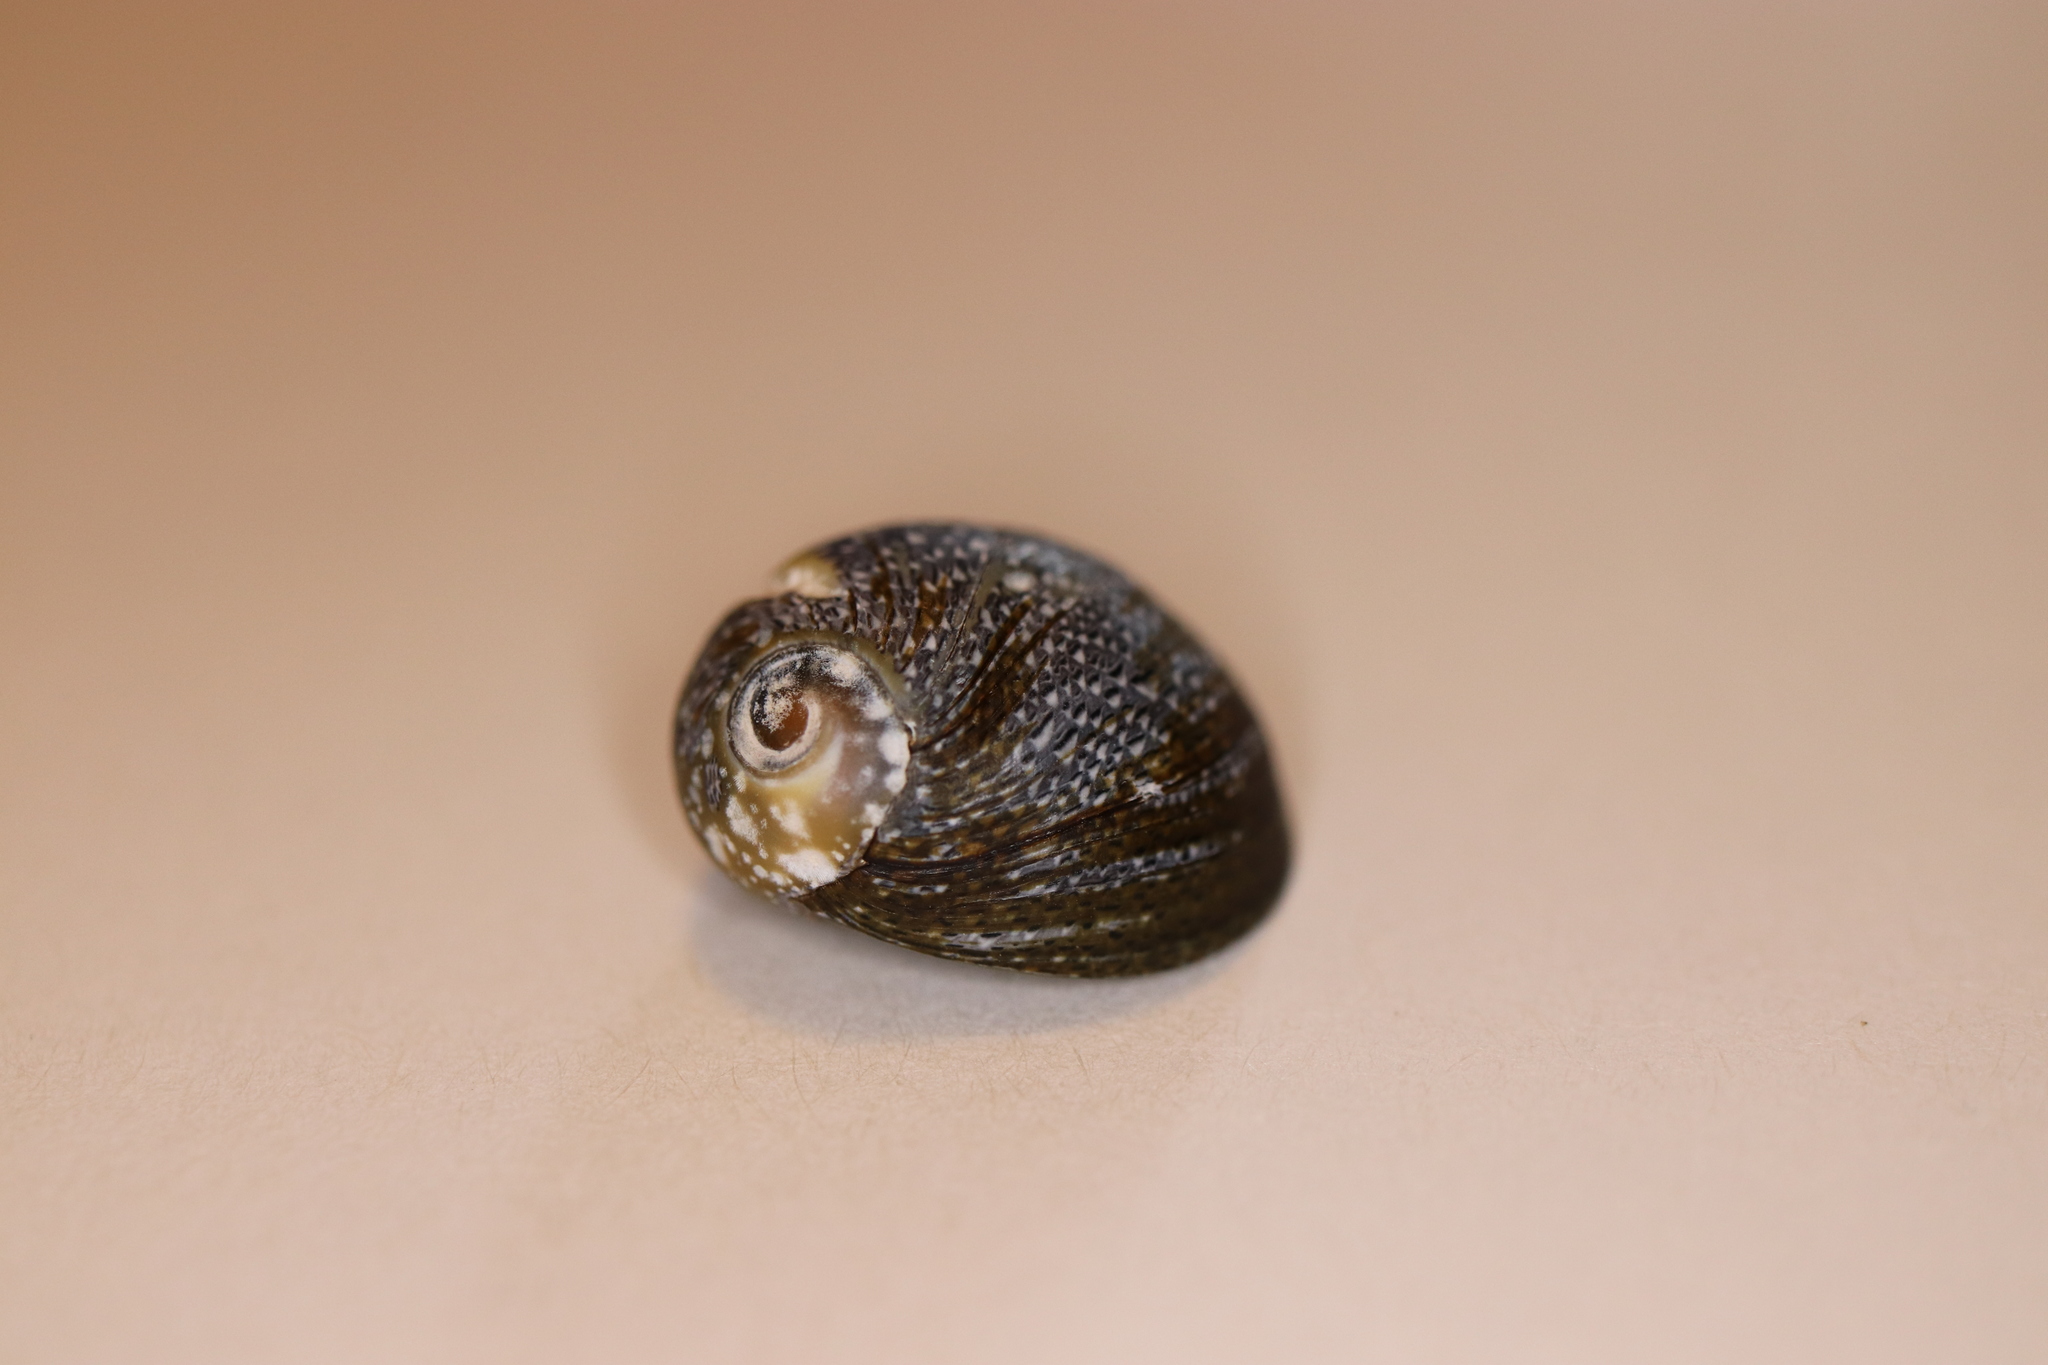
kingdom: Animalia
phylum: Mollusca
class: Gastropoda
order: Cycloneritida
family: Neritidae
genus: Nerita
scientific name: Nerita japonica
